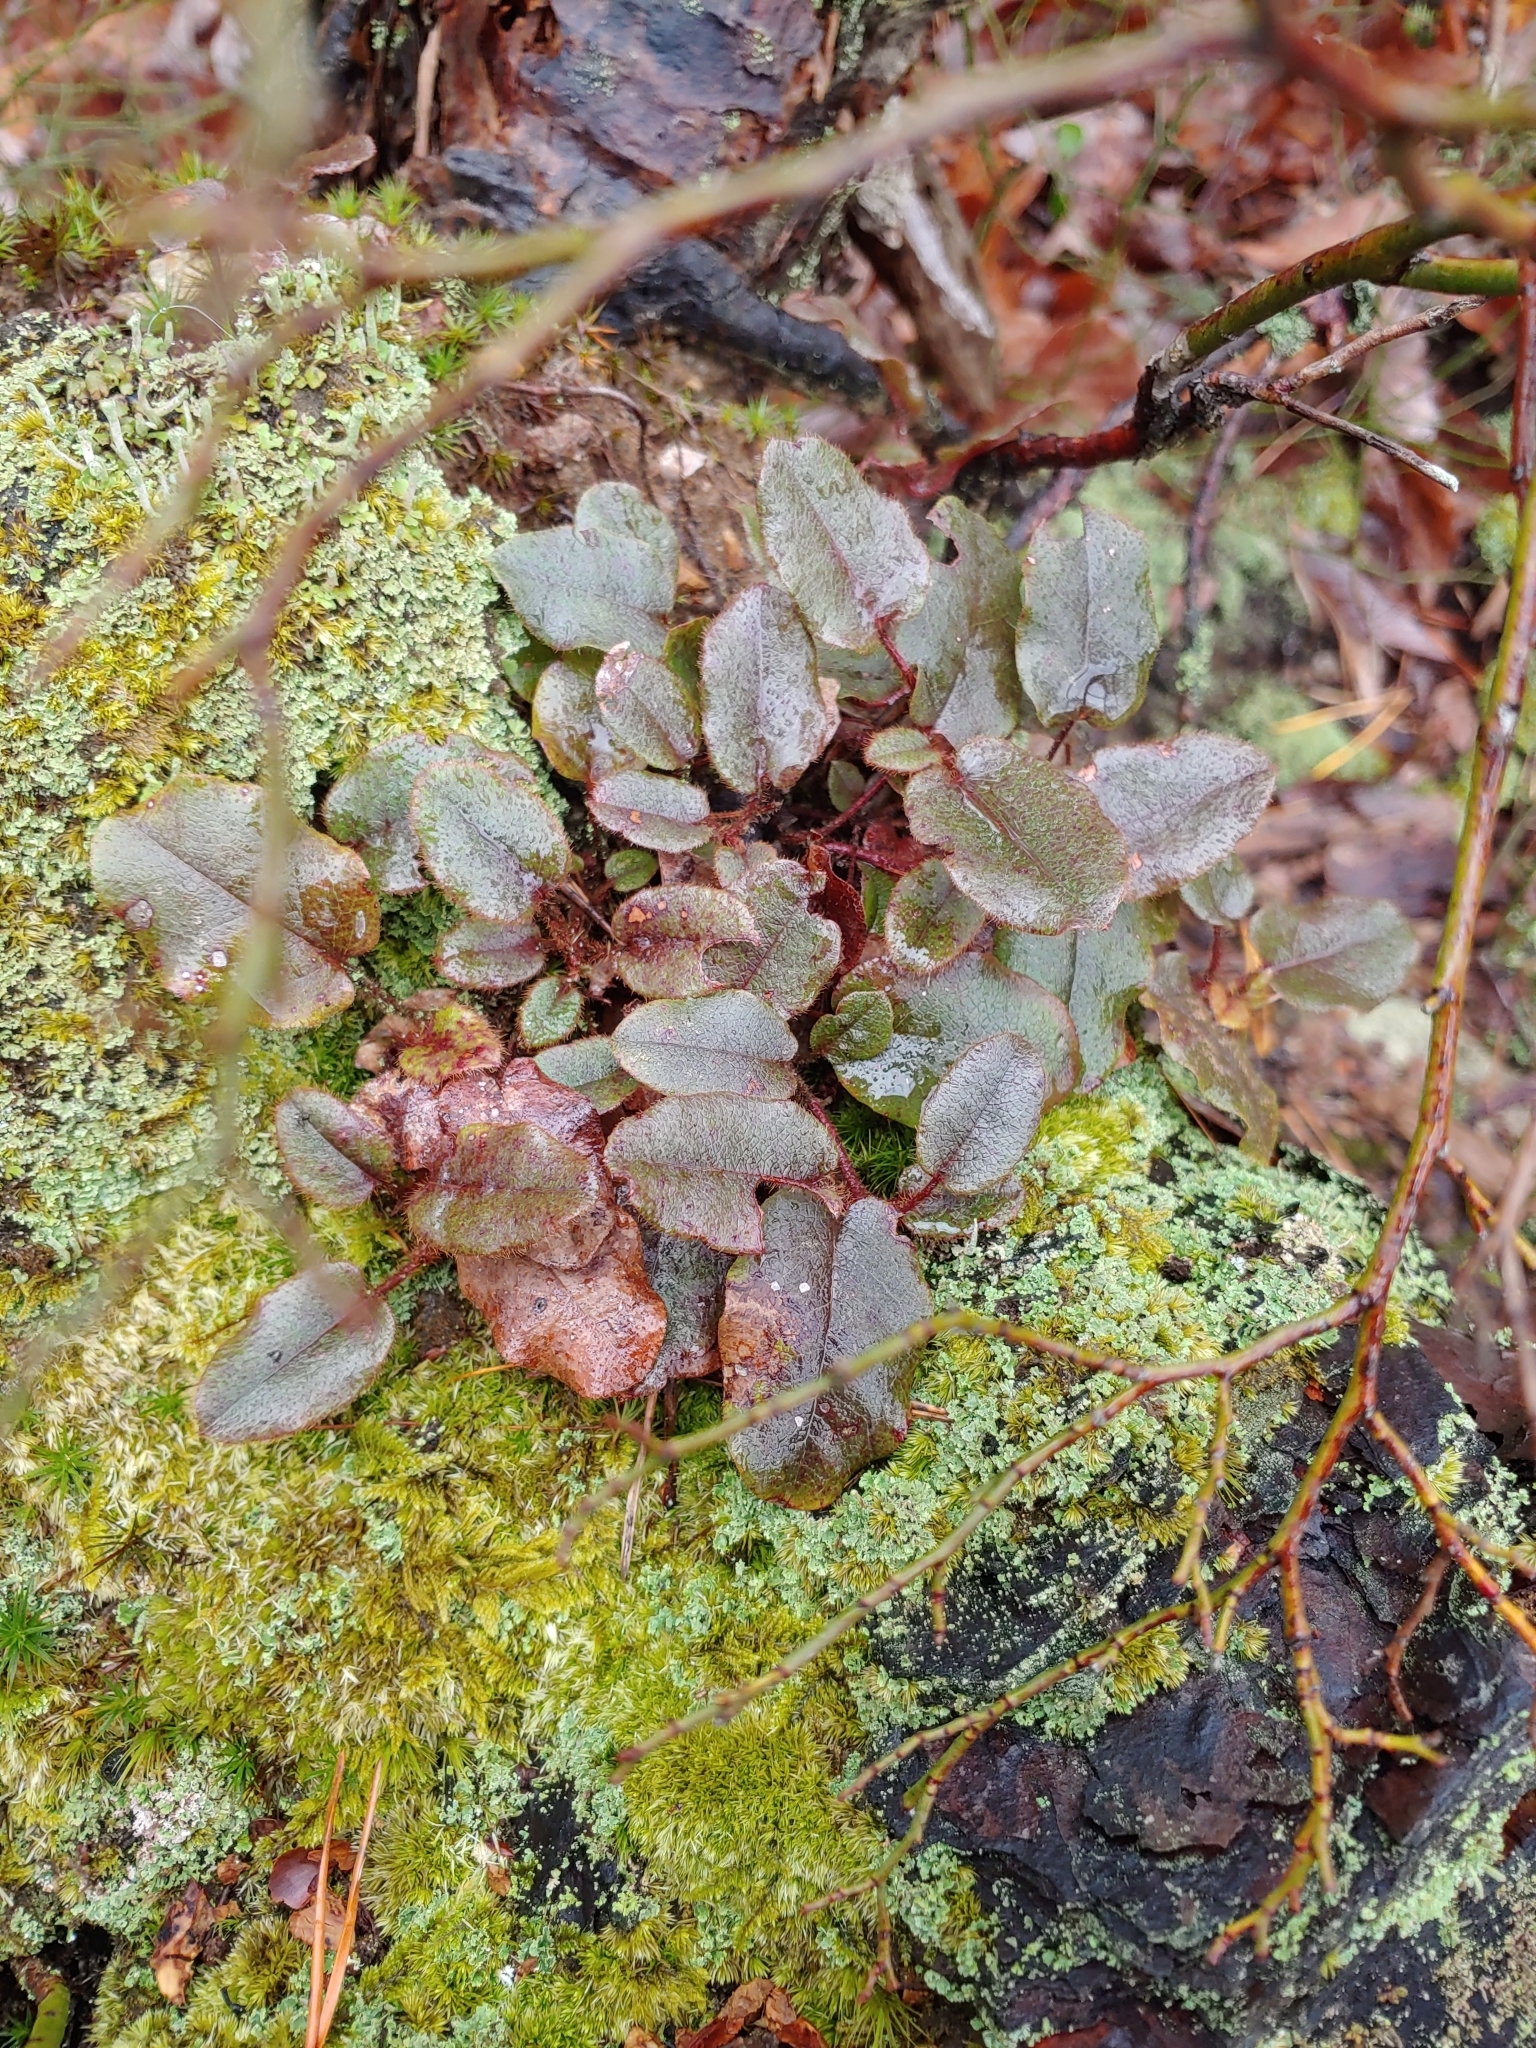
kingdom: Plantae
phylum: Tracheophyta
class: Magnoliopsida
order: Ericales
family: Ericaceae
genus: Epigaea
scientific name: Epigaea repens
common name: Gravelroot
